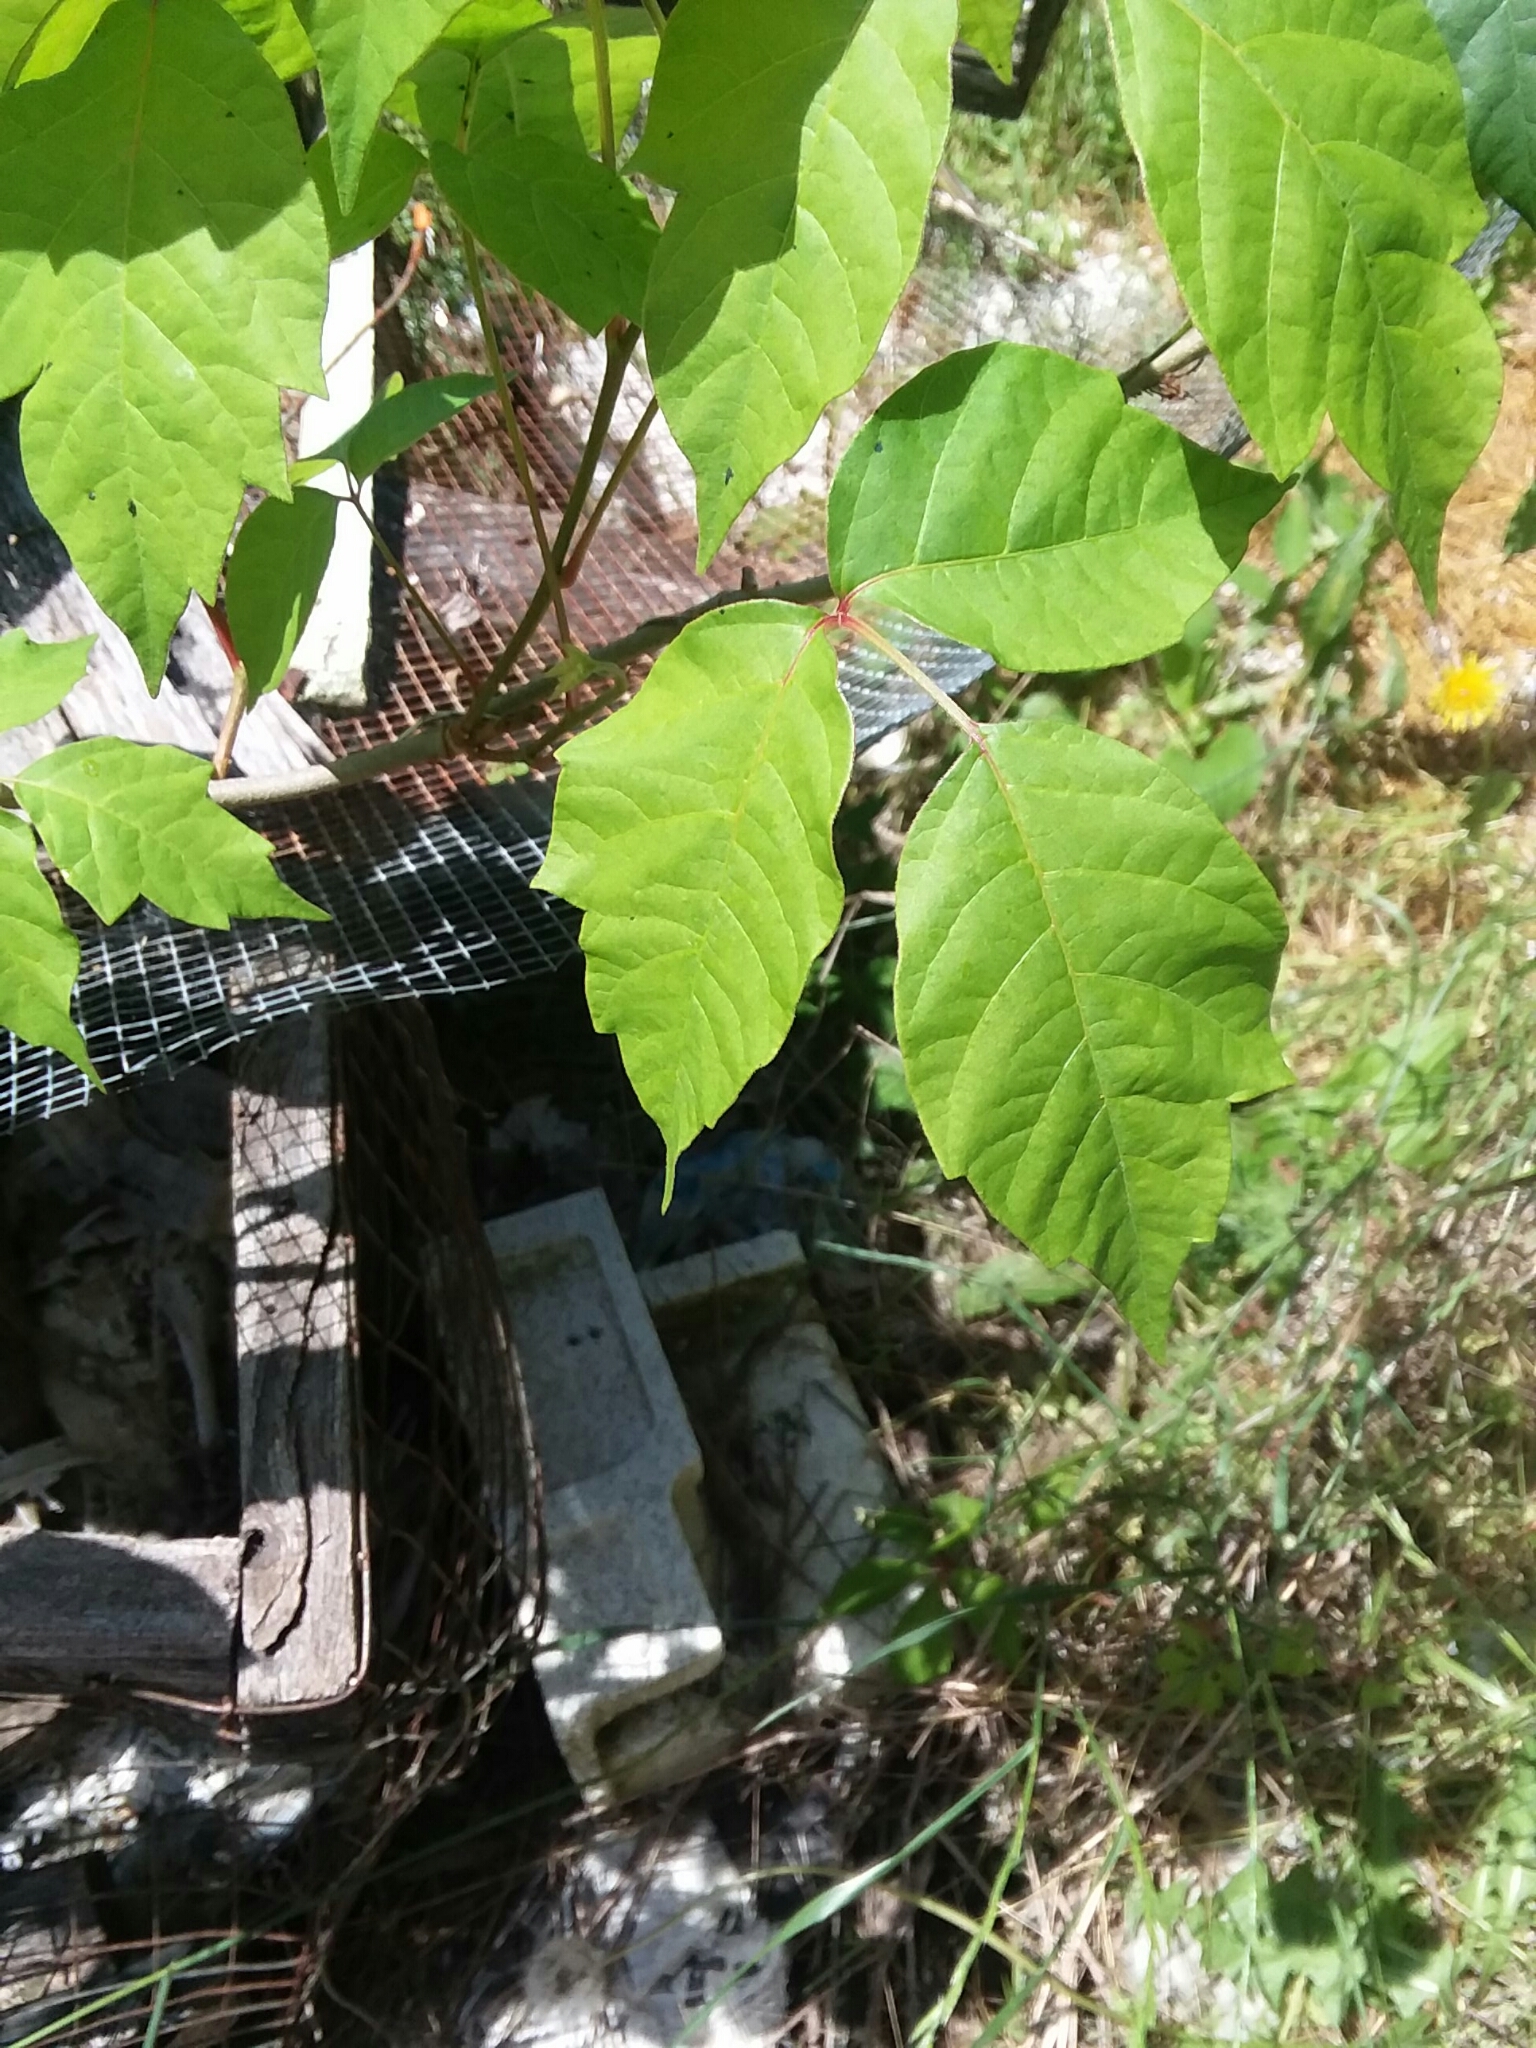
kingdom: Plantae
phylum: Tracheophyta
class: Magnoliopsida
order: Sapindales
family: Anacardiaceae
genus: Toxicodendron
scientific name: Toxicodendron radicans
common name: Poison ivy
